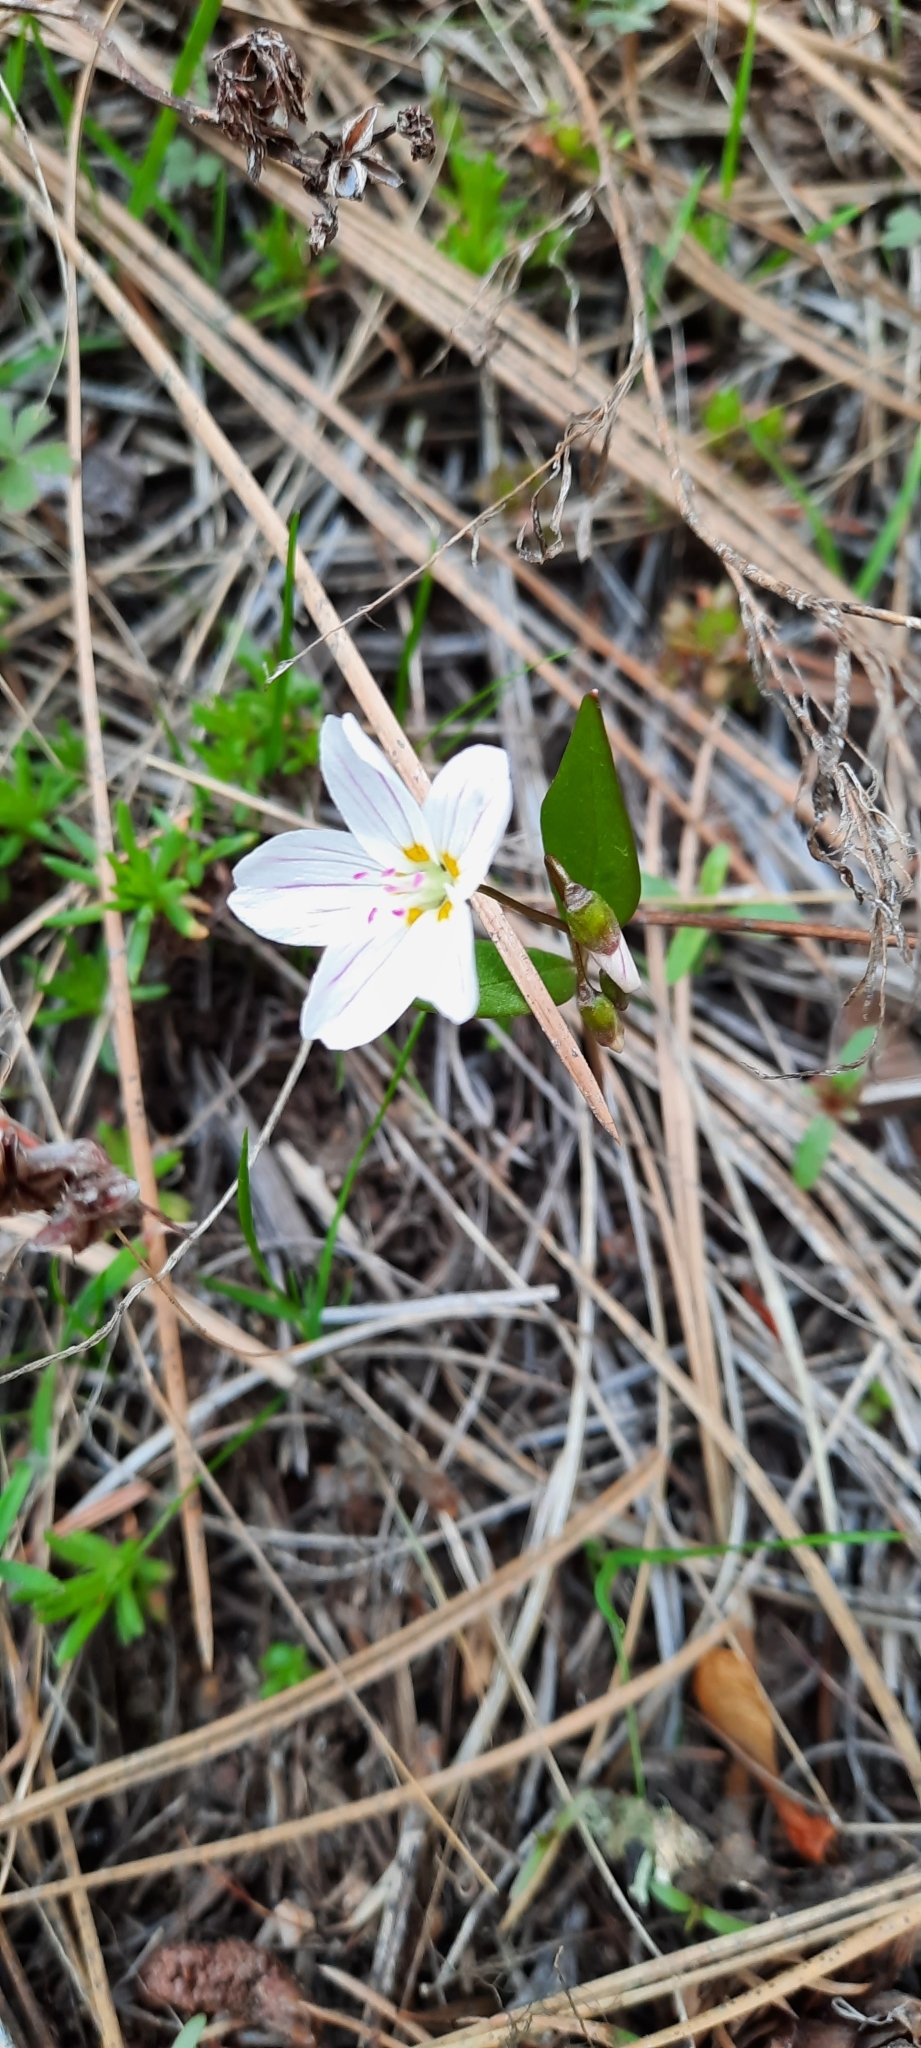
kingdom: Plantae
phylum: Tracheophyta
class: Magnoliopsida
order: Caryophyllales
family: Montiaceae
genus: Claytonia
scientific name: Claytonia lanceolata
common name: Western spring-beauty
